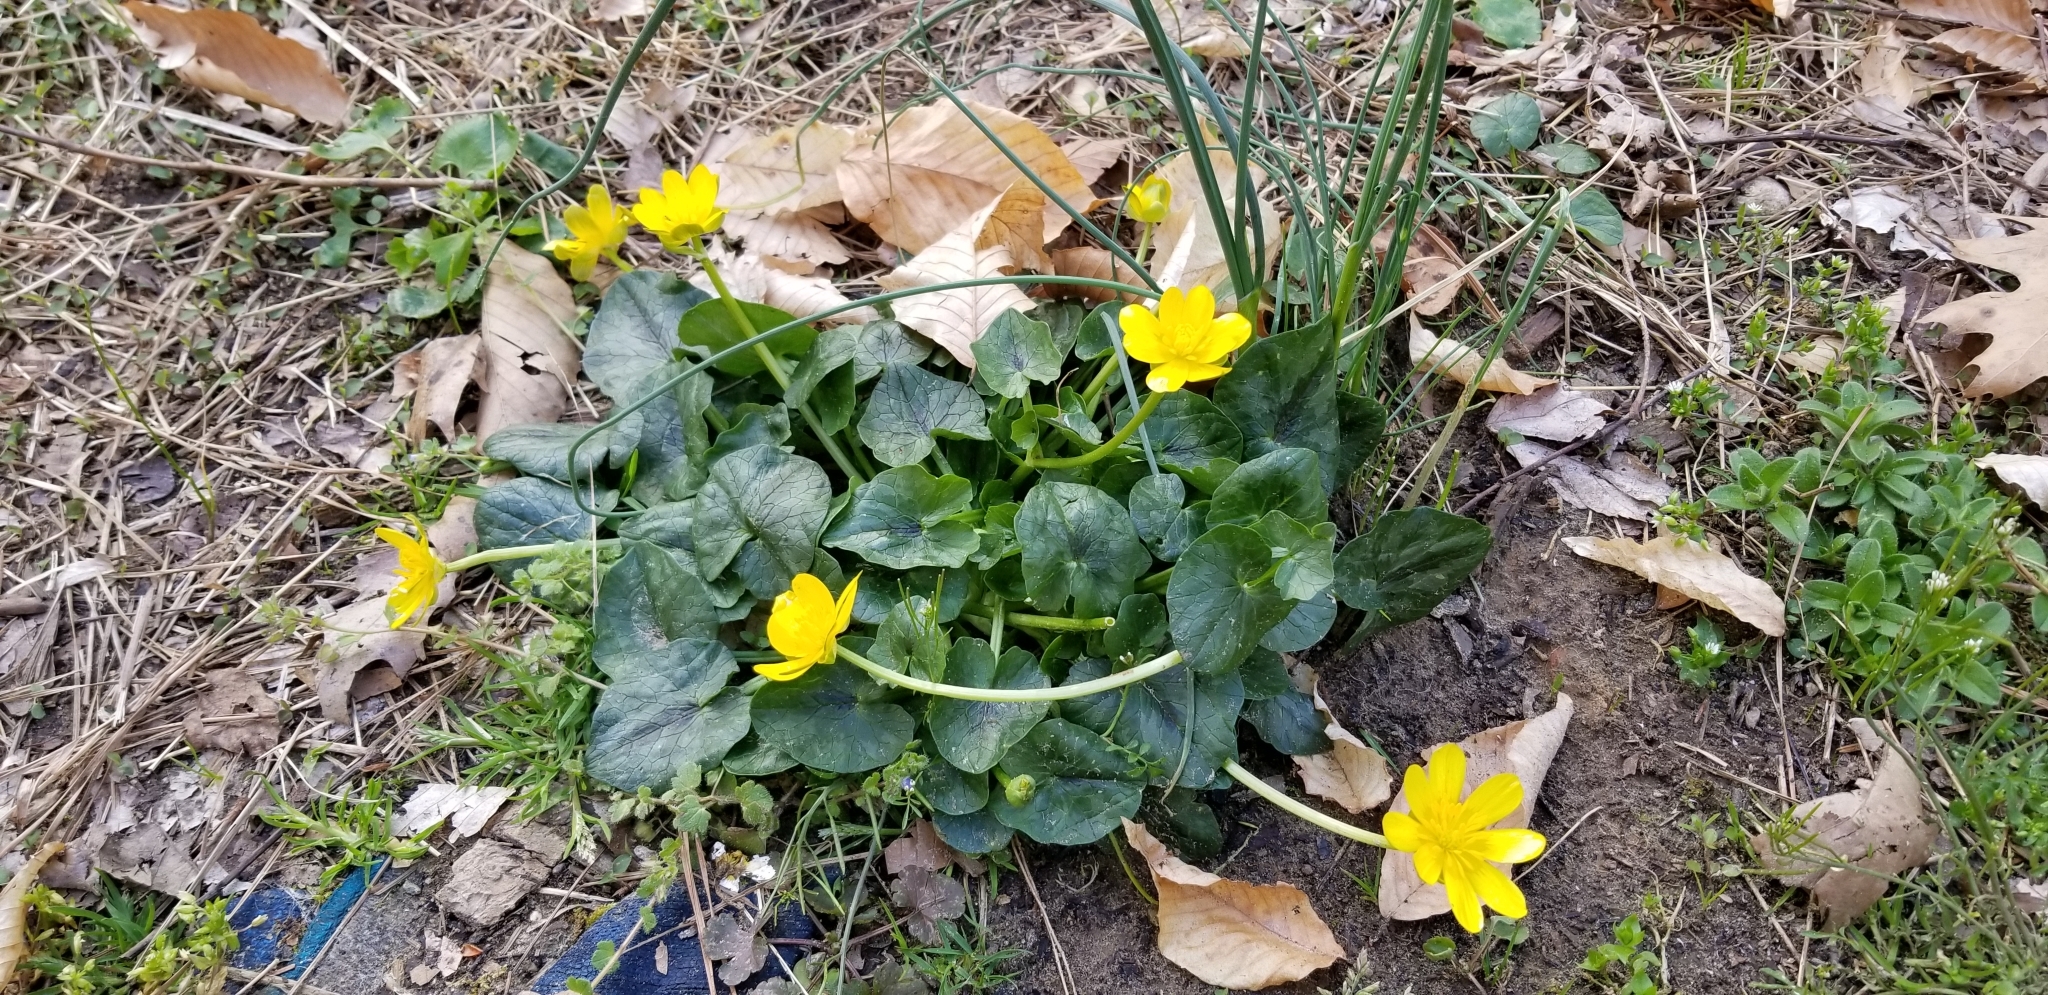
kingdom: Plantae
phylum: Tracheophyta
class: Magnoliopsida
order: Ranunculales
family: Ranunculaceae
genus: Ficaria
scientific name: Ficaria verna
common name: Lesser celandine
